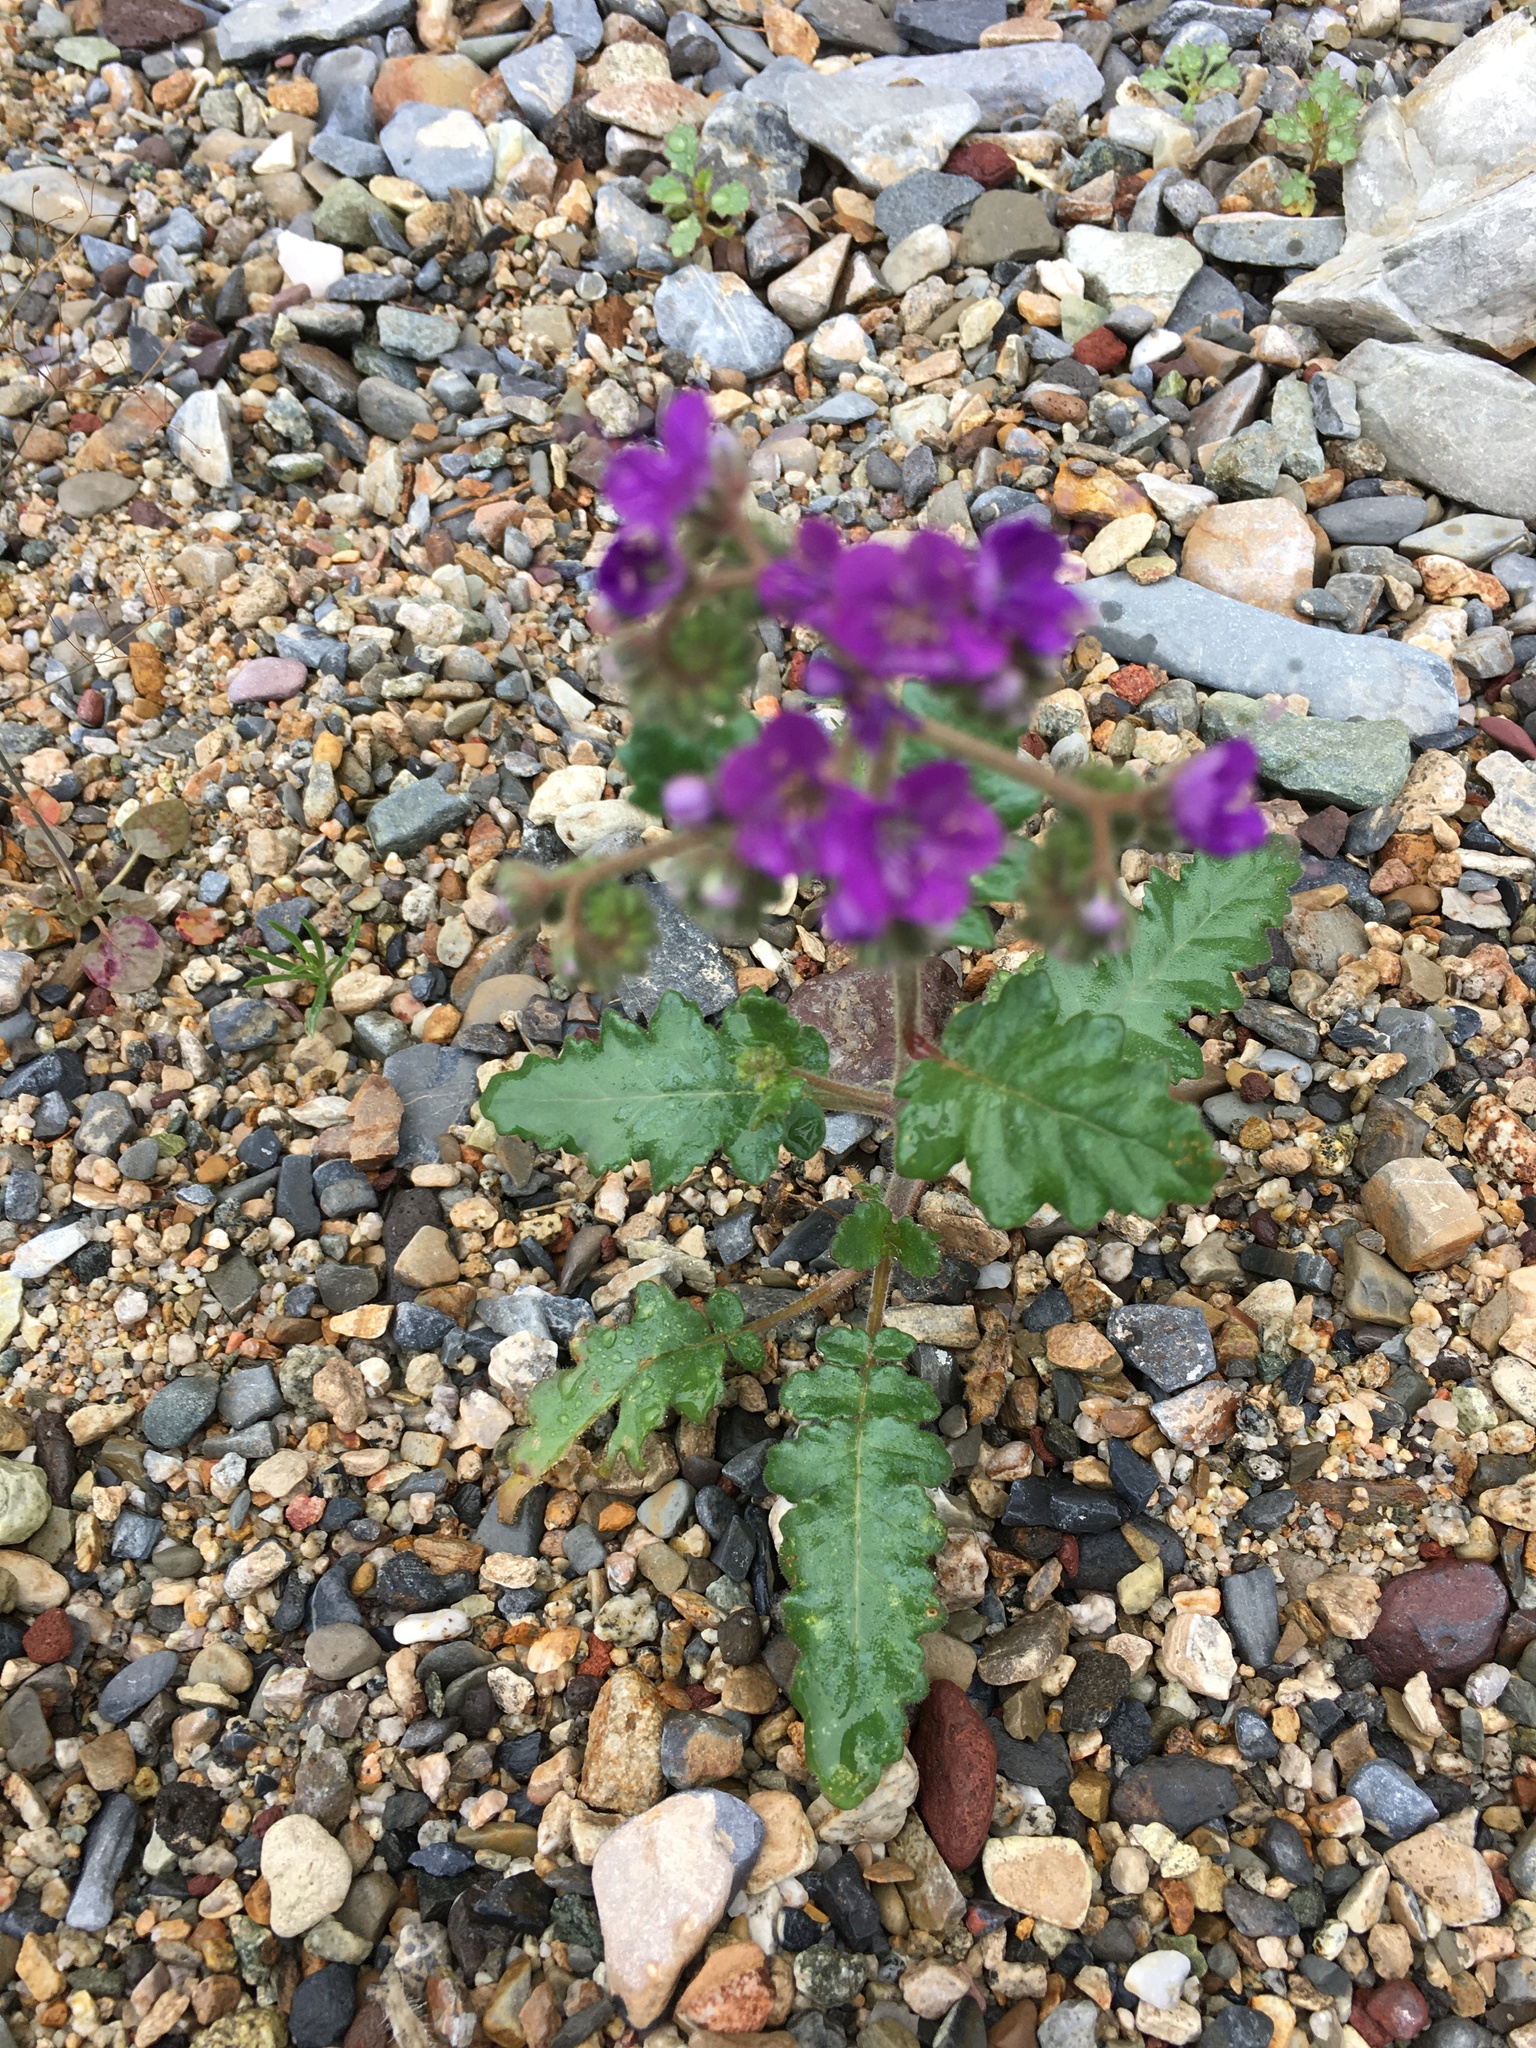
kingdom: Plantae
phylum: Tracheophyta
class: Magnoliopsida
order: Boraginales
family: Hydrophyllaceae
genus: Phacelia
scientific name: Phacelia crenulata
